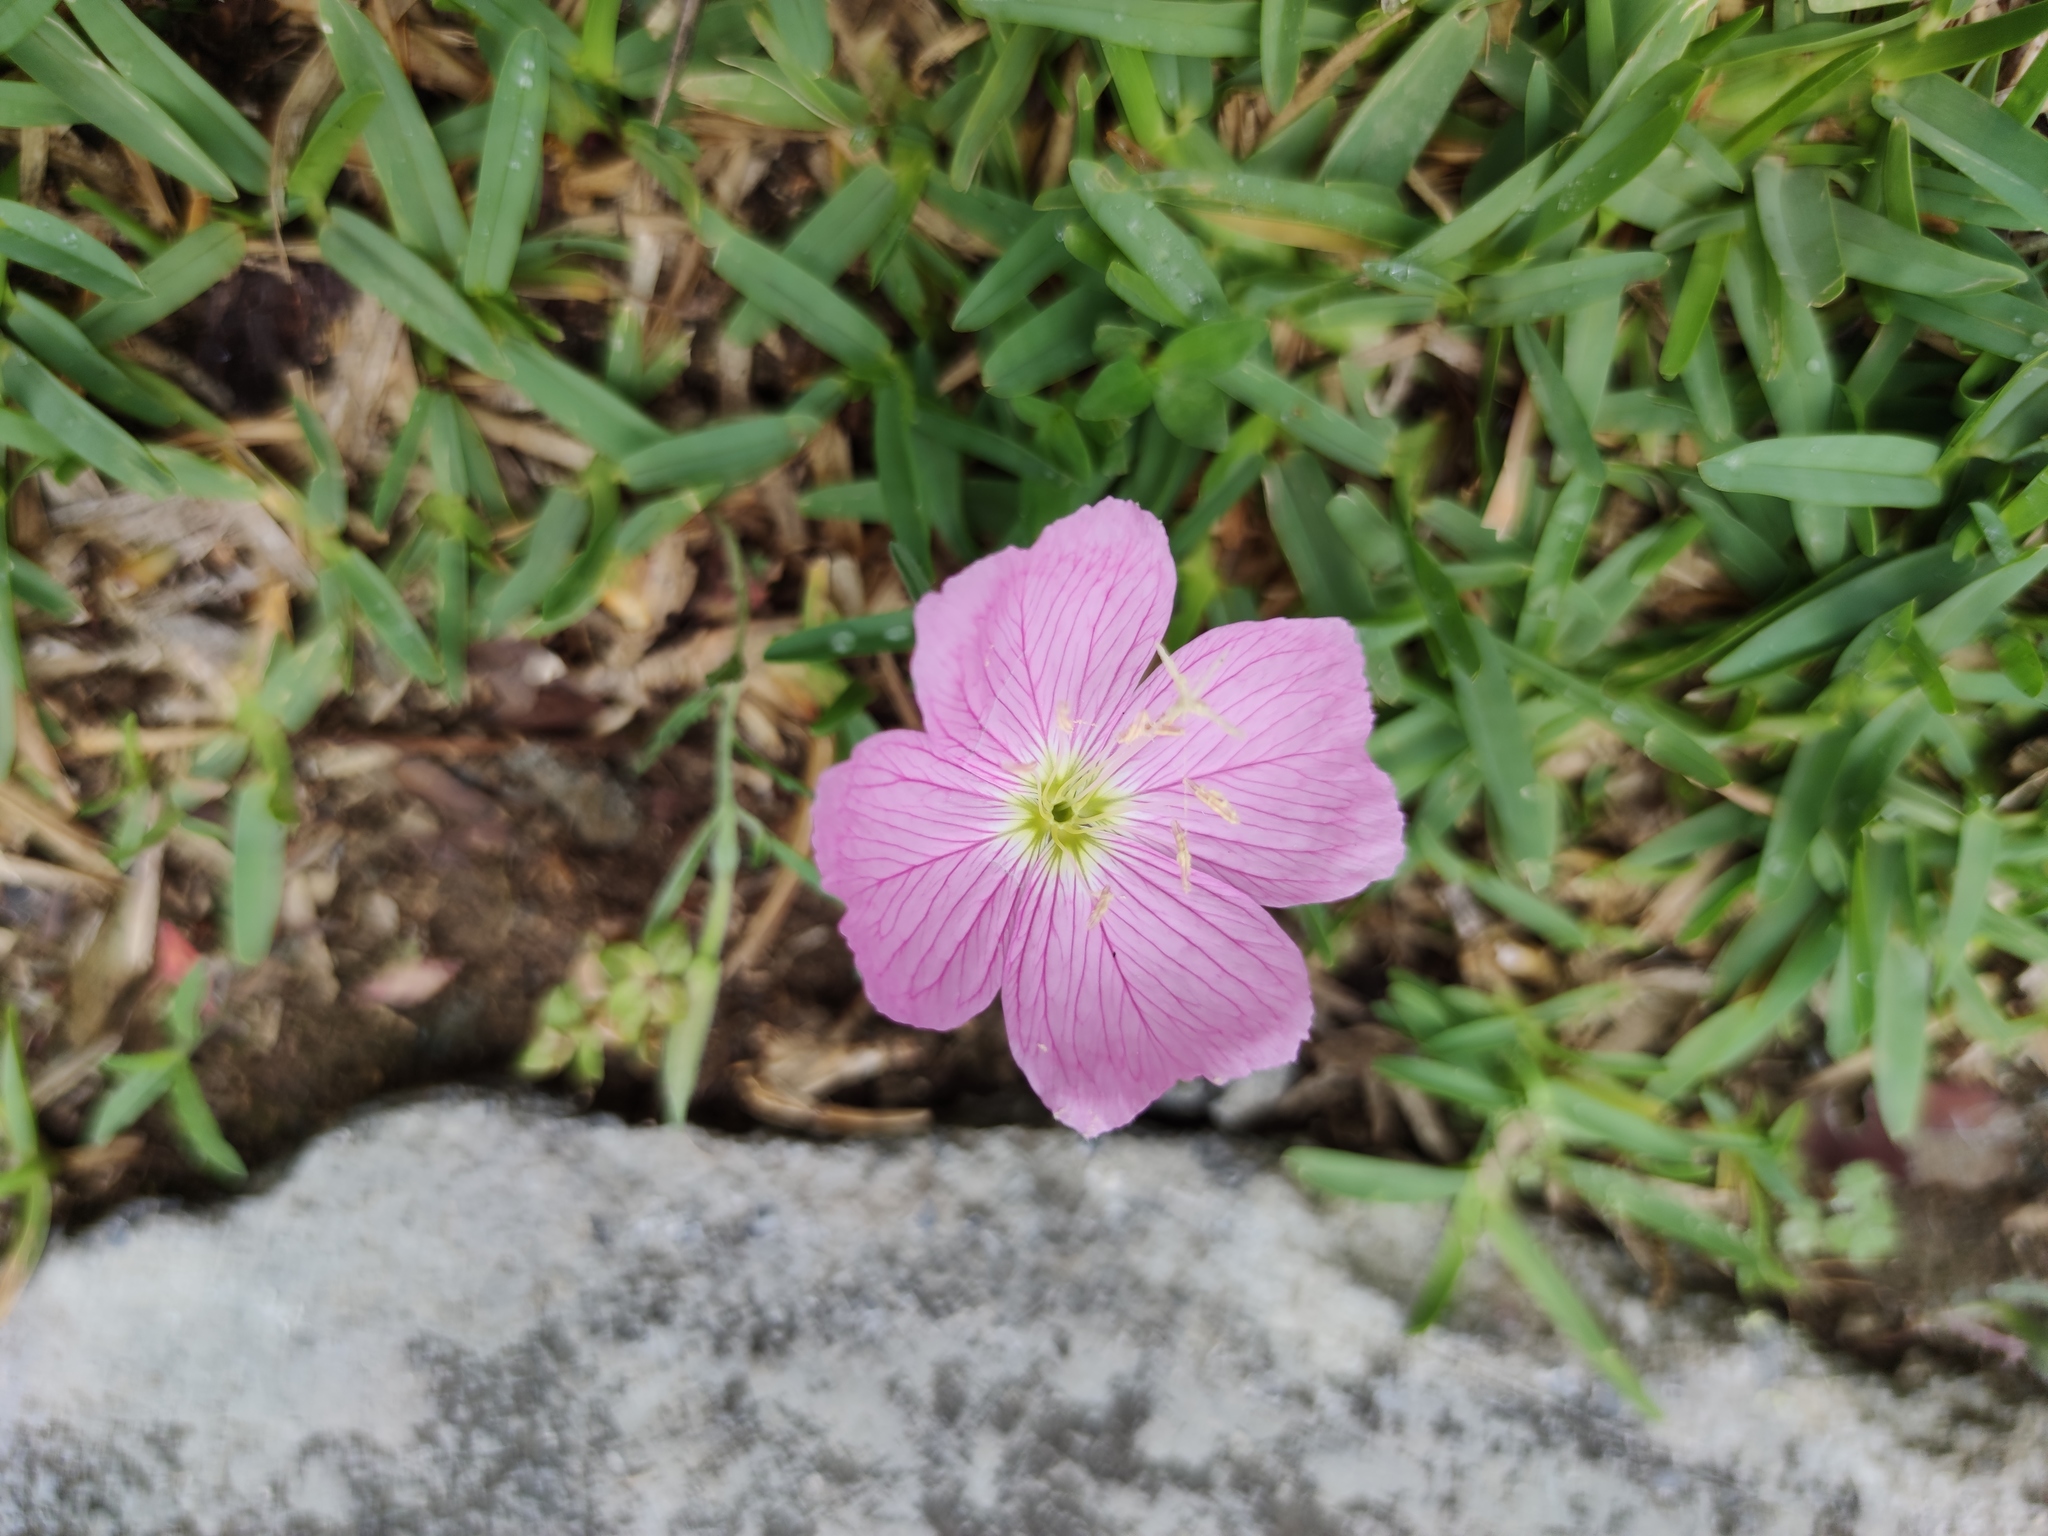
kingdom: Plantae
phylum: Tracheophyta
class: Magnoliopsida
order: Myrtales
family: Onagraceae
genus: Oenothera
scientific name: Oenothera speciosa
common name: White evening-primrose
